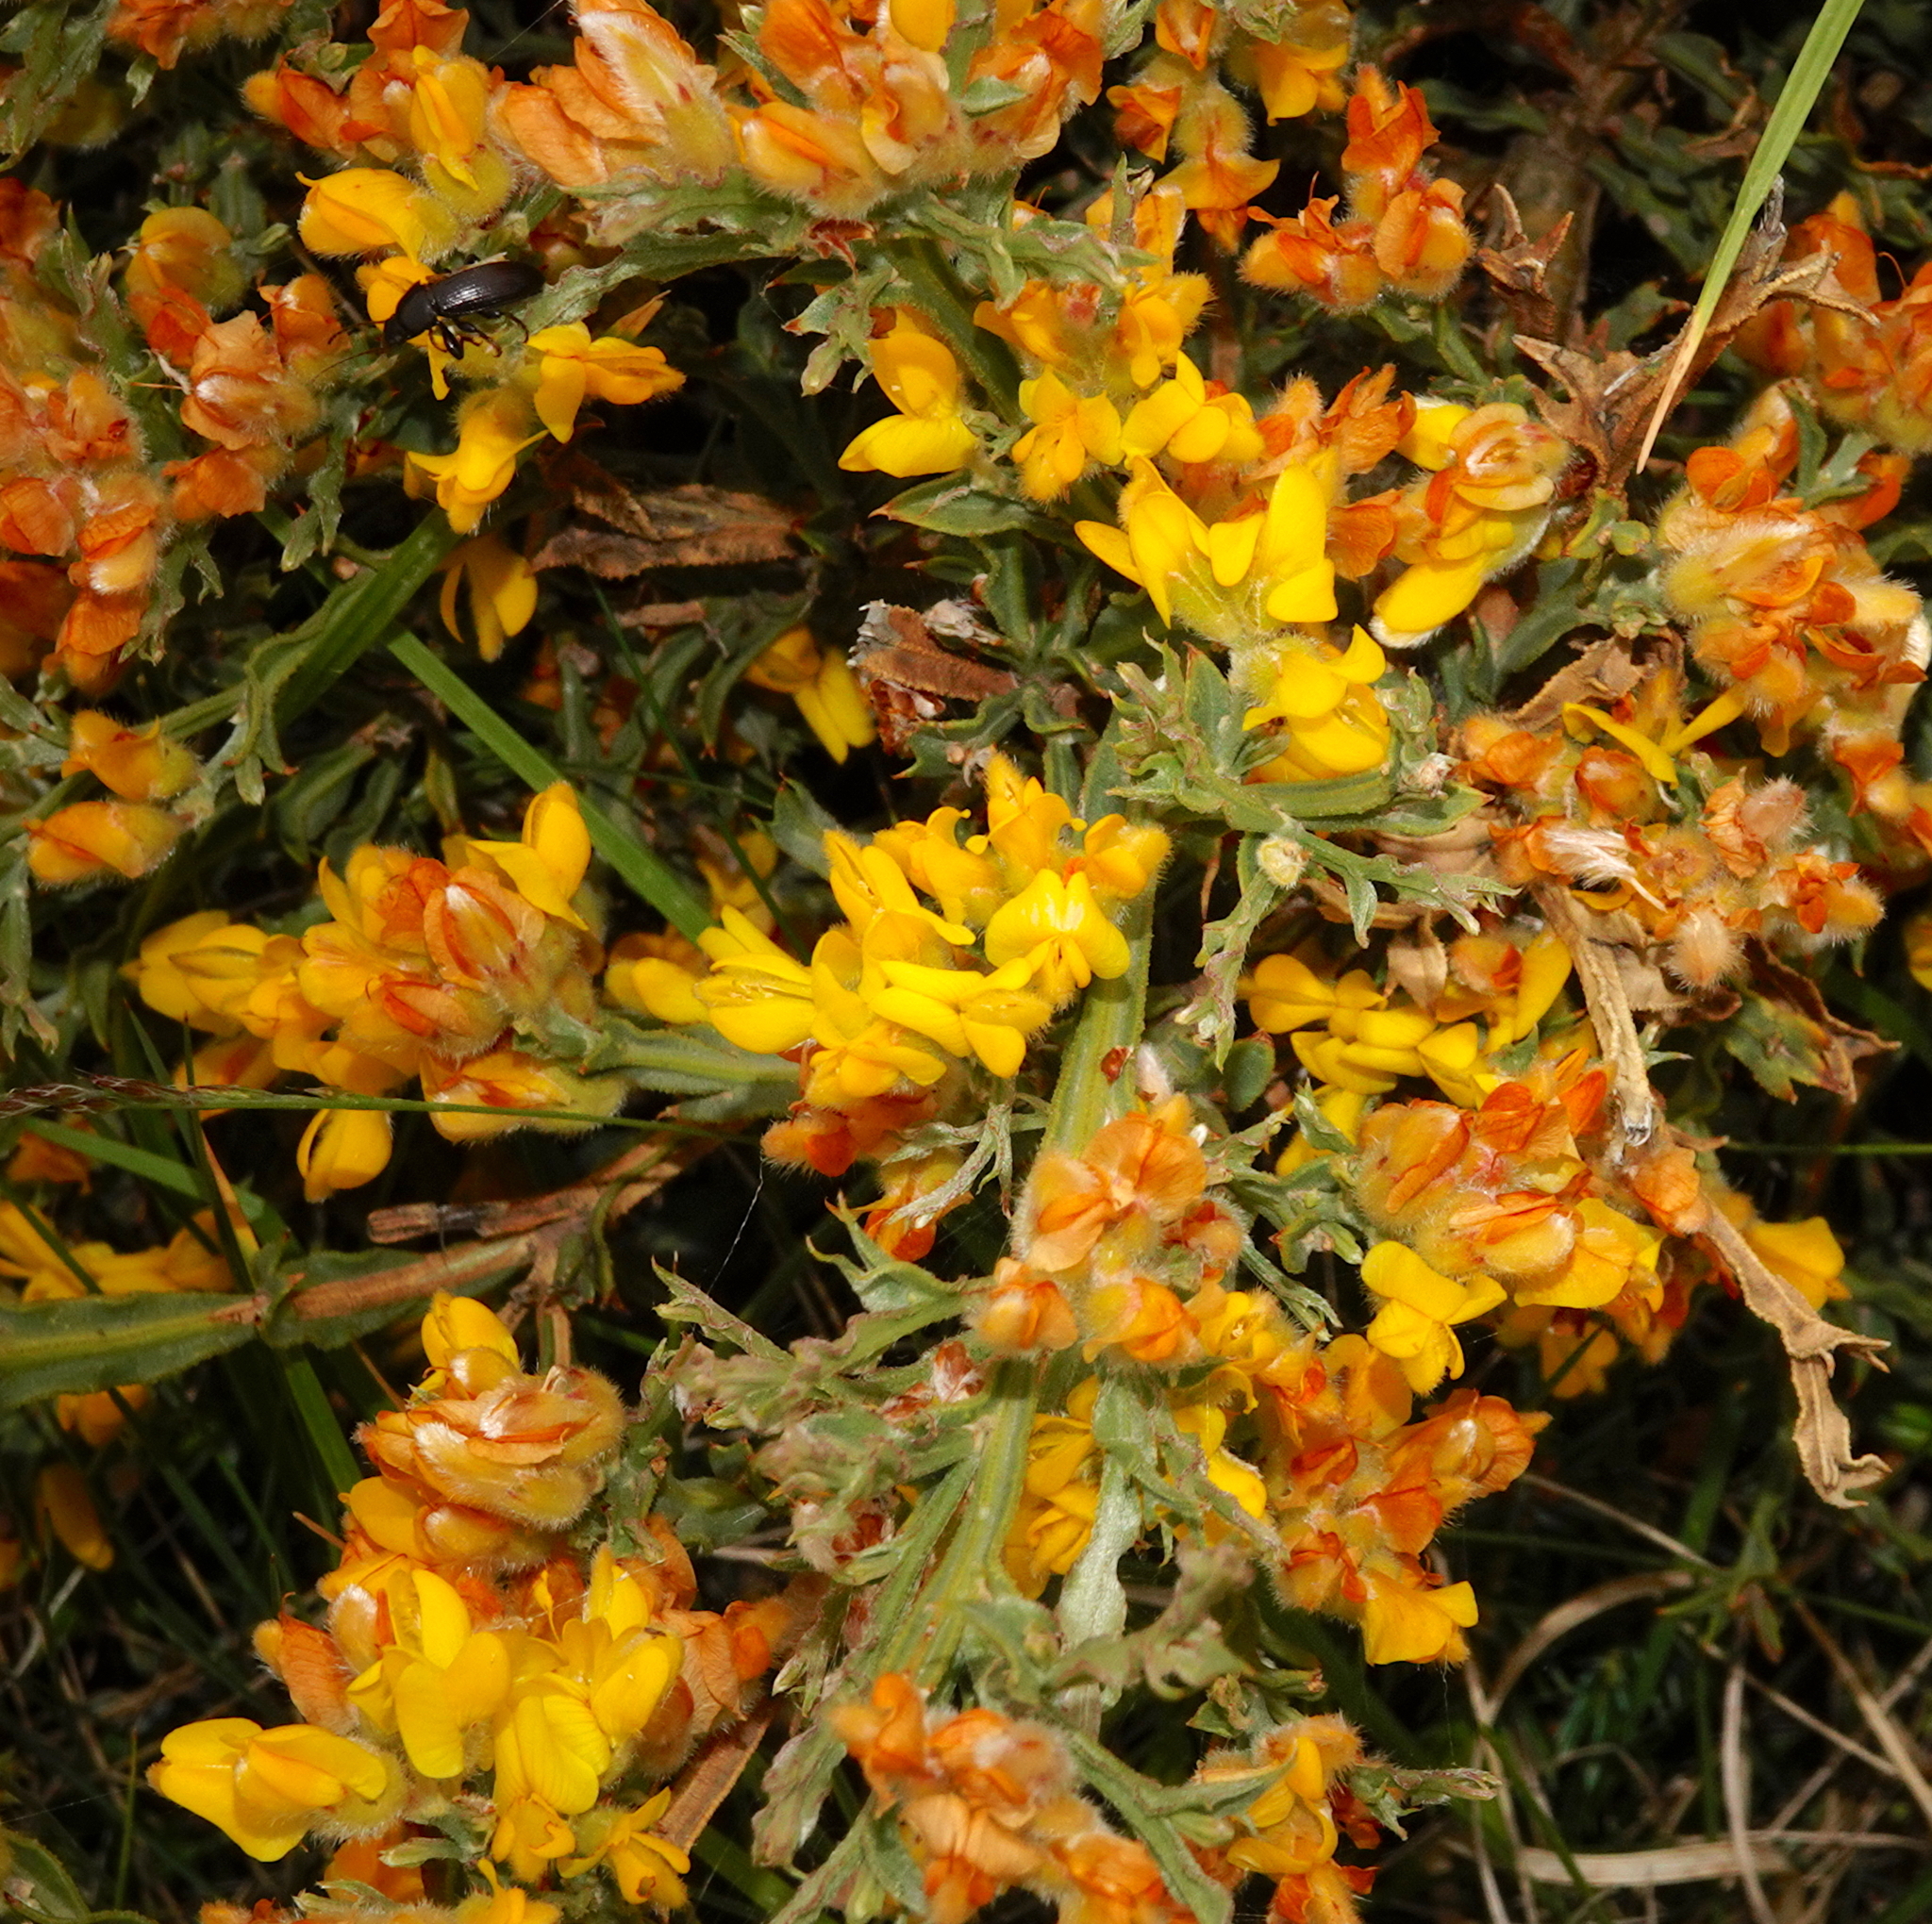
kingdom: Plantae
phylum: Tracheophyta
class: Magnoliopsida
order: Fabales
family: Fabaceae
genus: Genista
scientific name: Genista tridentata
